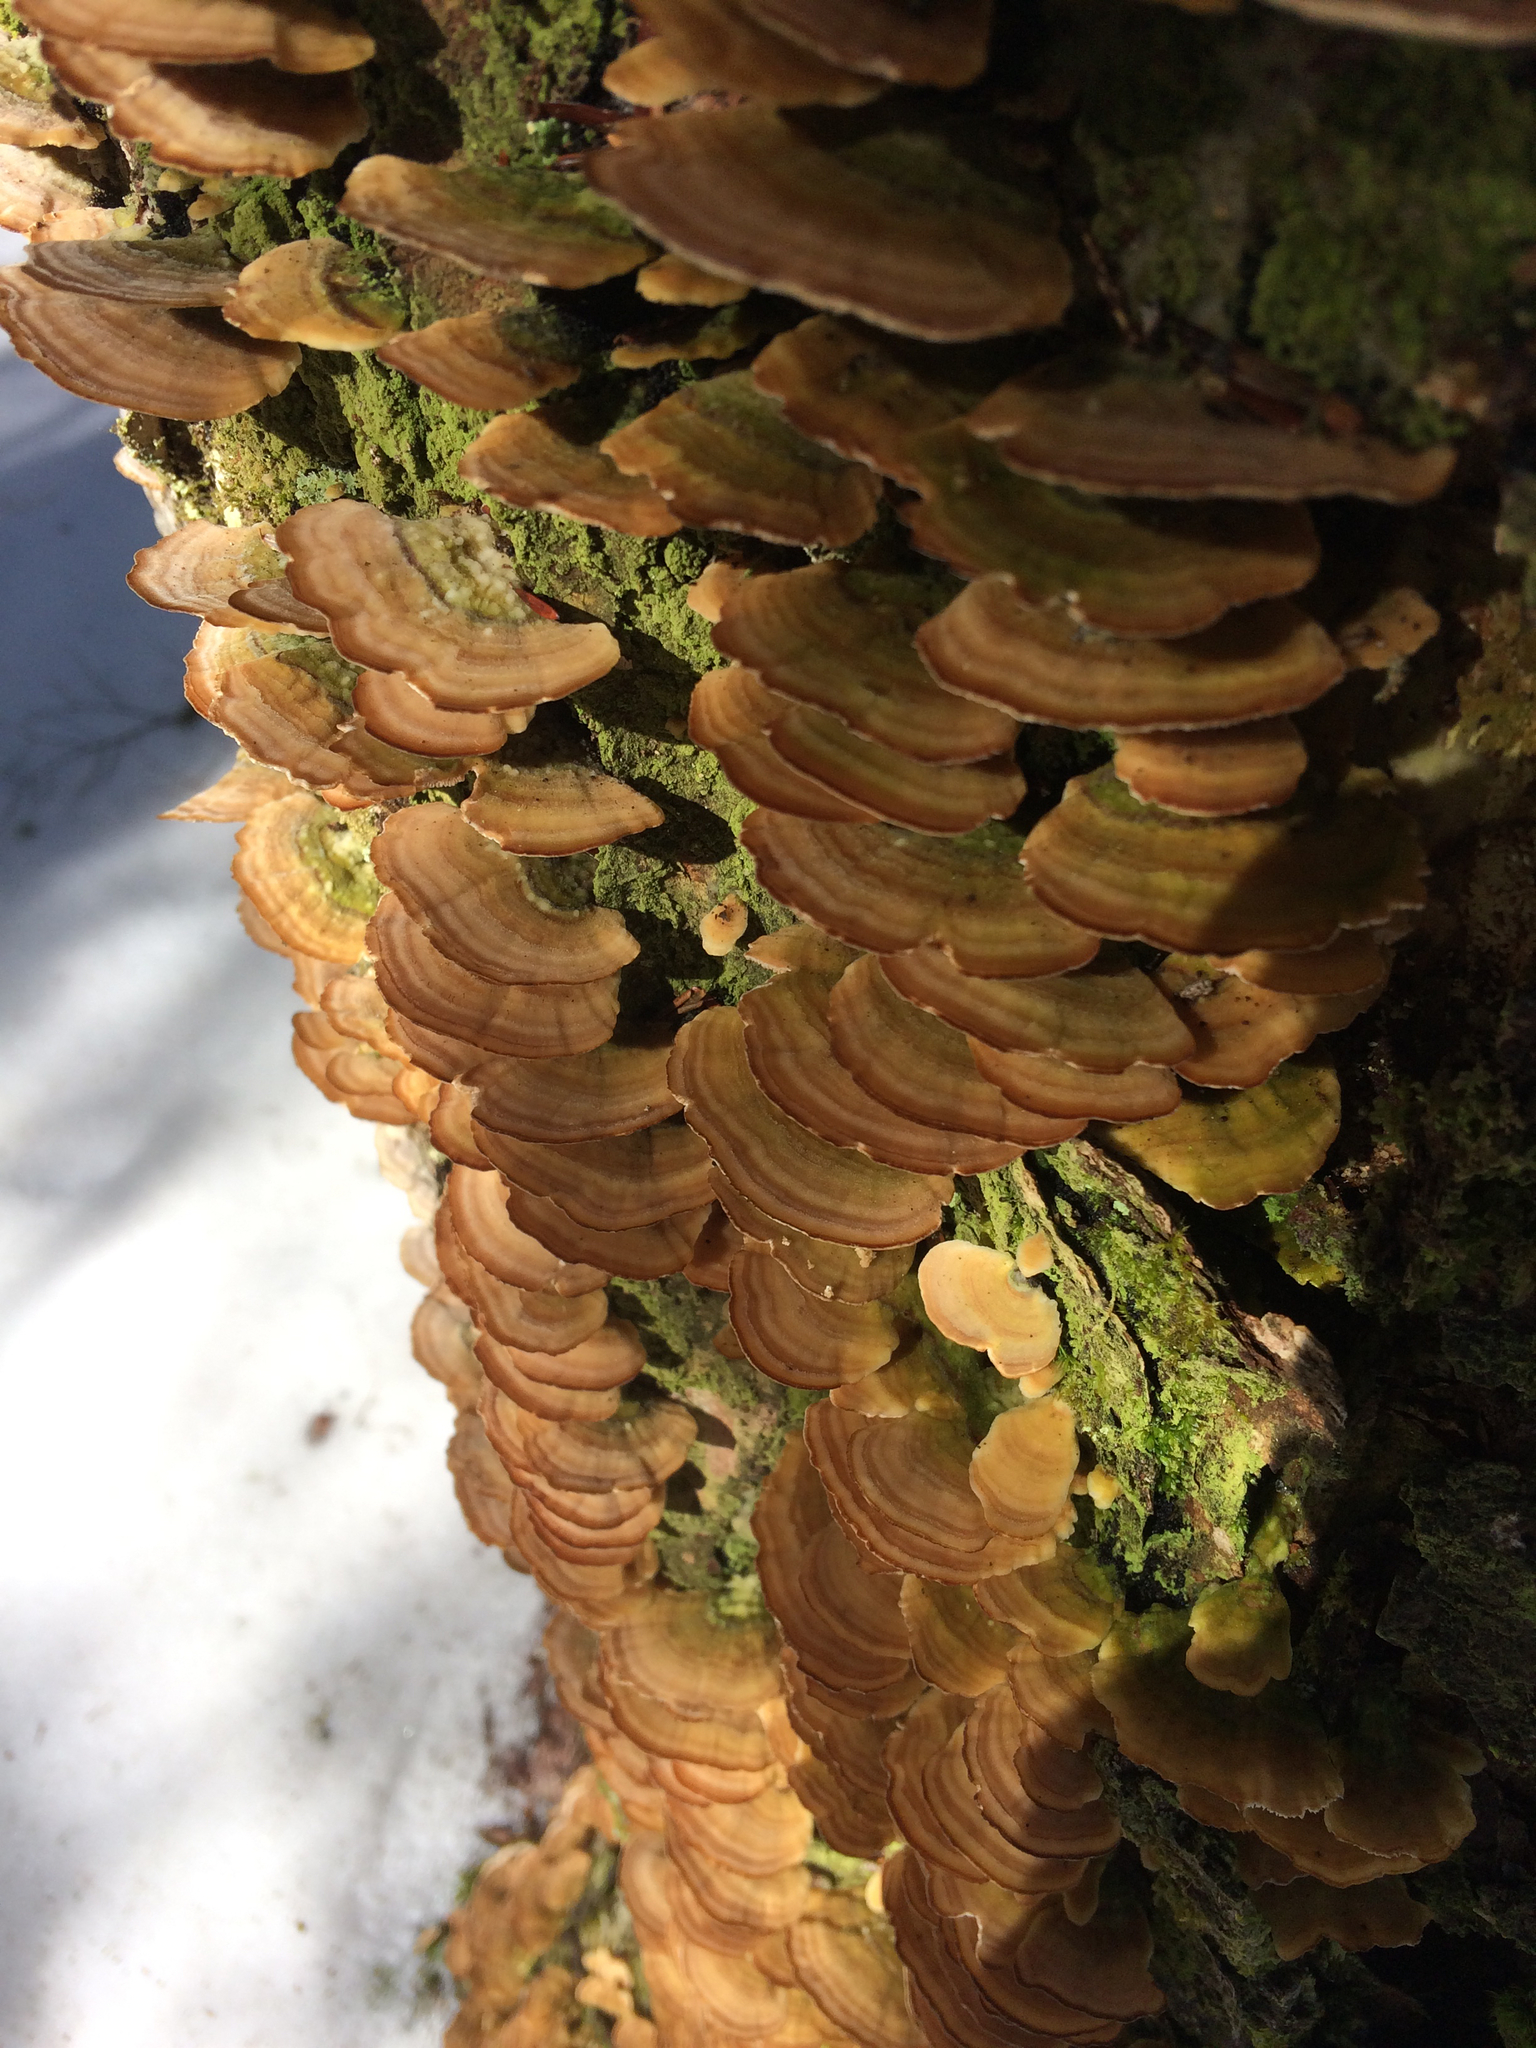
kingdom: Fungi
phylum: Basidiomycota
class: Agaricomycetes
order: Hymenochaetales
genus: Trichaptum
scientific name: Trichaptum biforme
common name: Violet-toothed polypore
